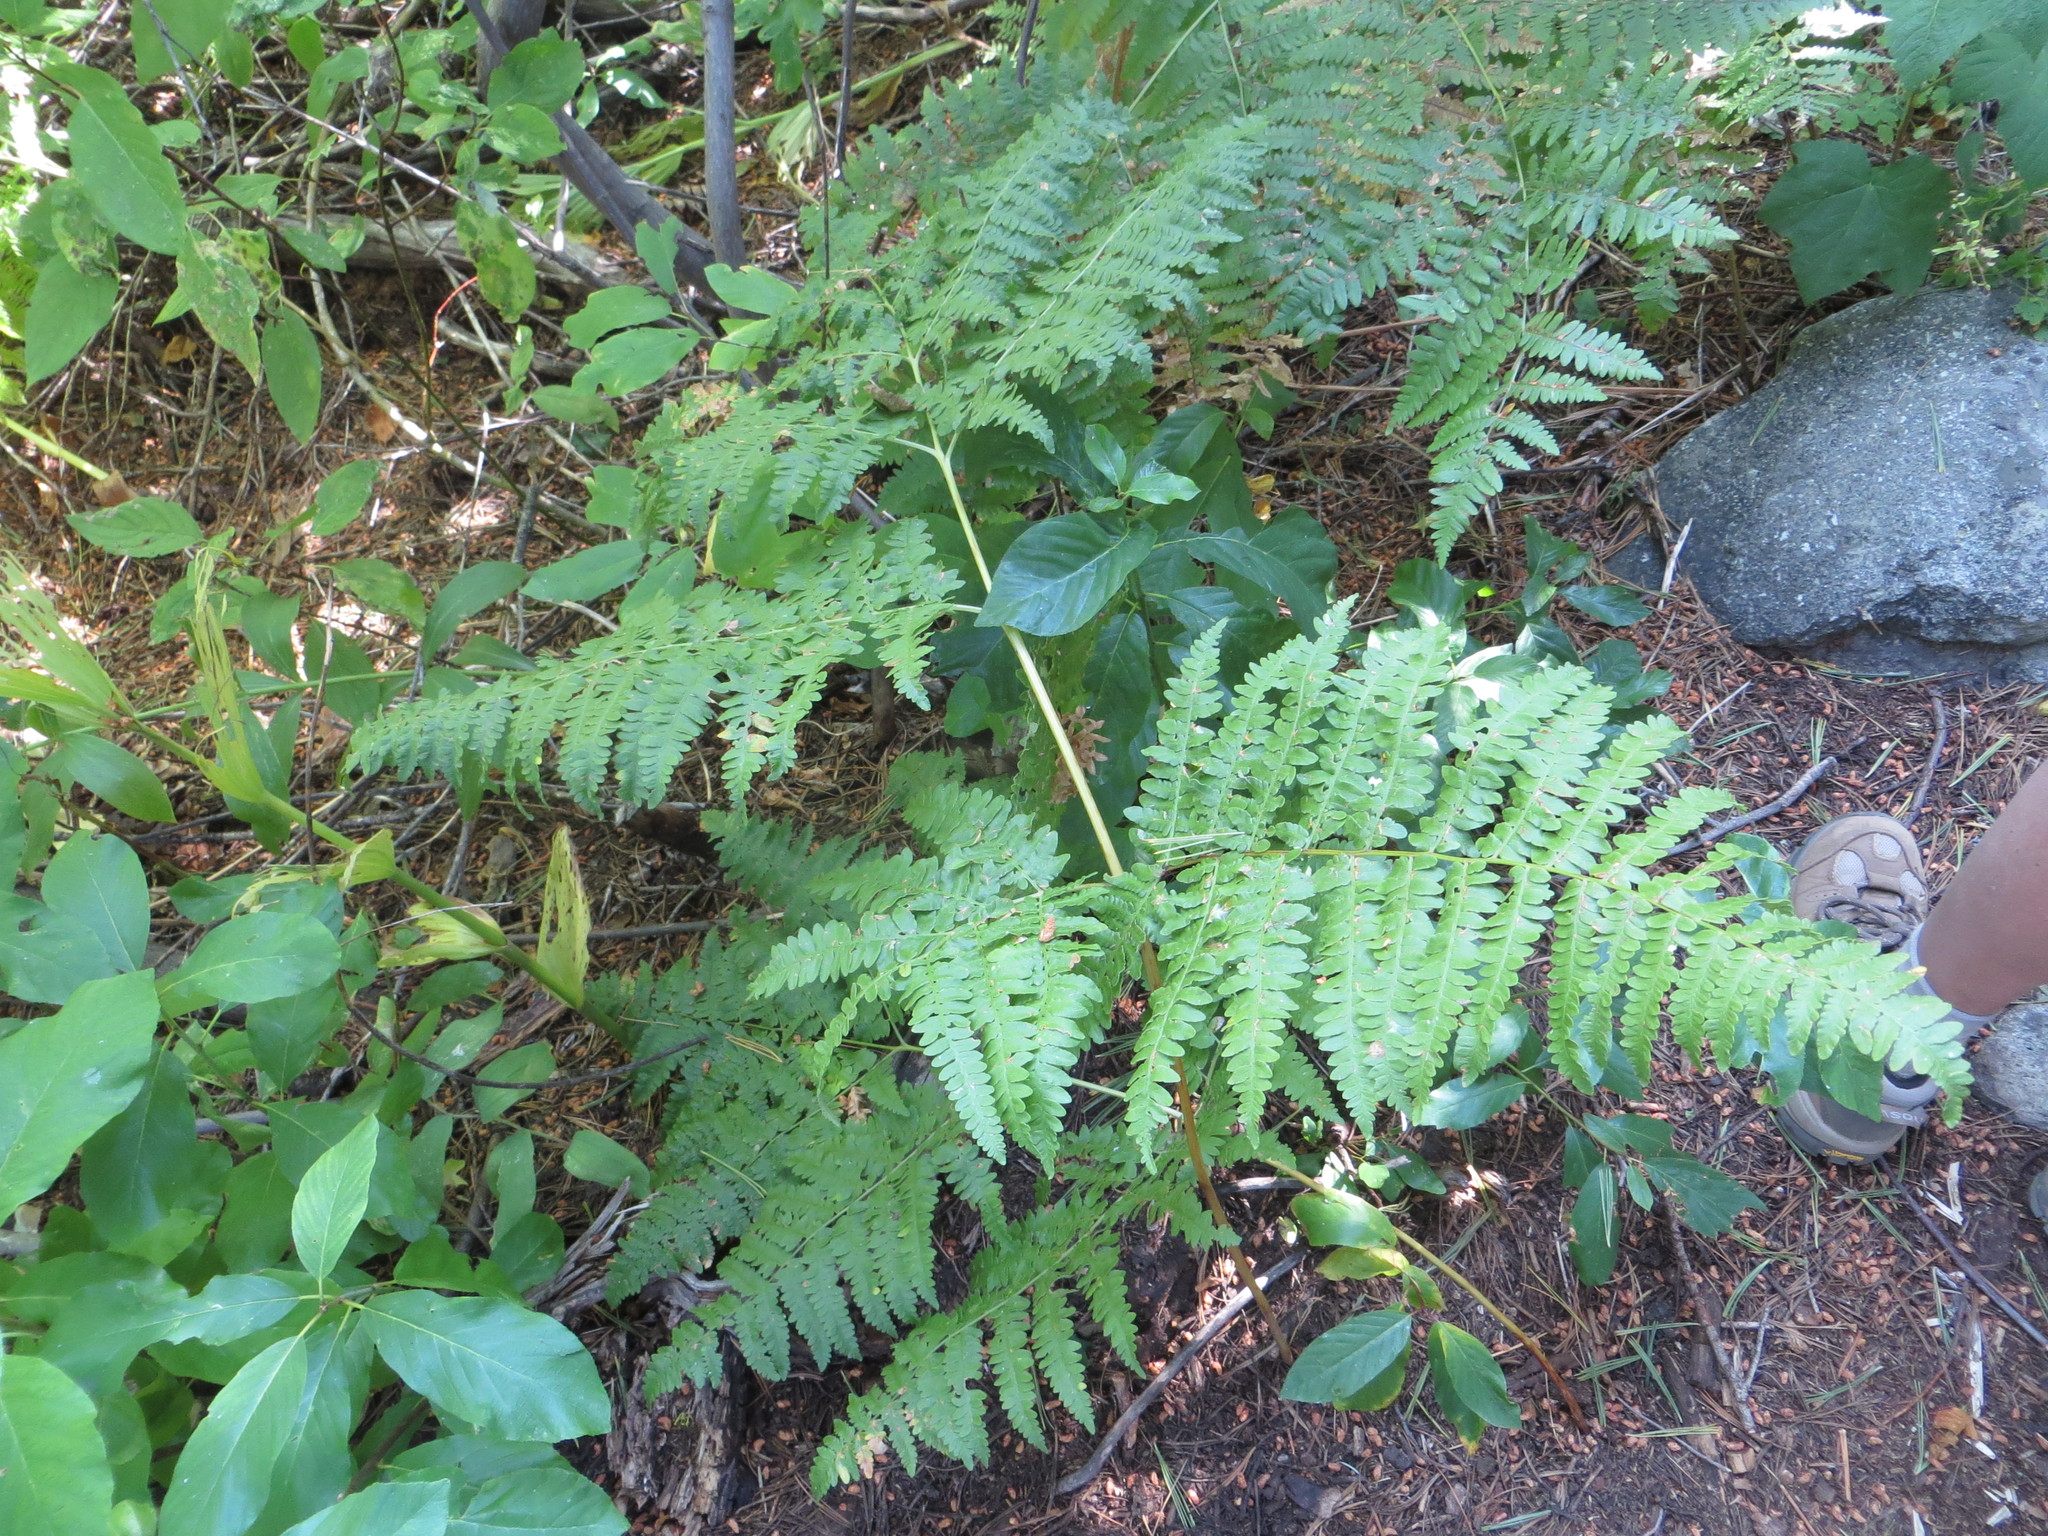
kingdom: Plantae
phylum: Tracheophyta
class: Polypodiopsida
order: Polypodiales
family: Dennstaedtiaceae
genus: Pteridium
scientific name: Pteridium aquilinum
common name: Bracken
